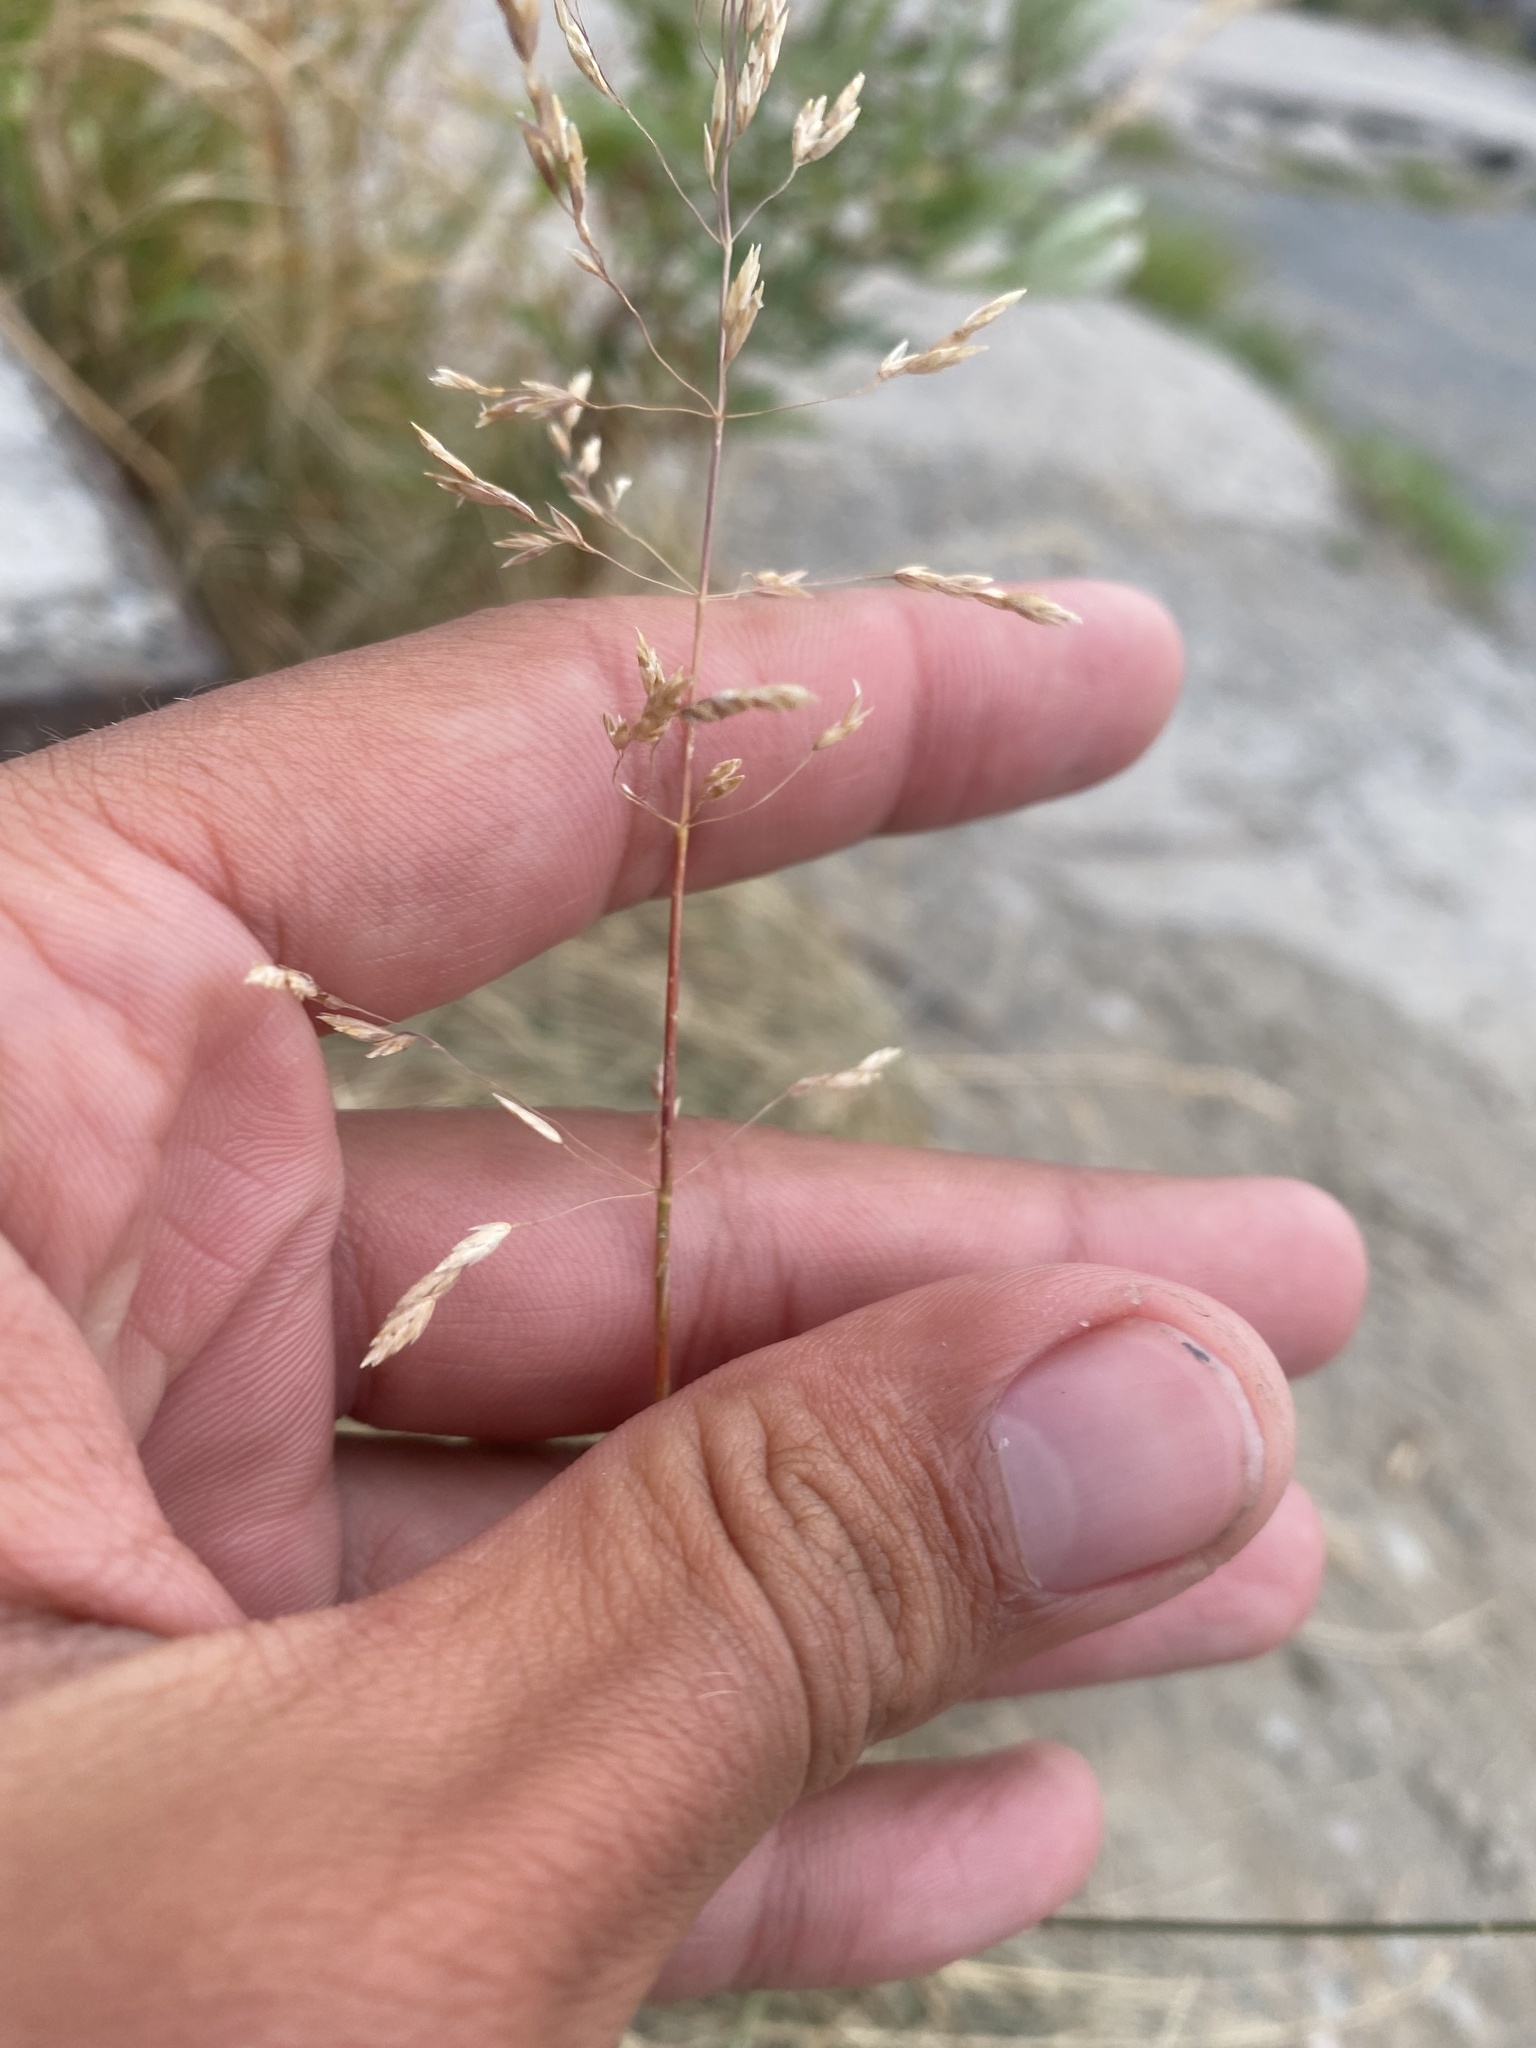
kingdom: Plantae
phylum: Tracheophyta
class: Liliopsida
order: Poales
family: Poaceae
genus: Poa
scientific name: Poa pratensis
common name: Kentucky bluegrass
